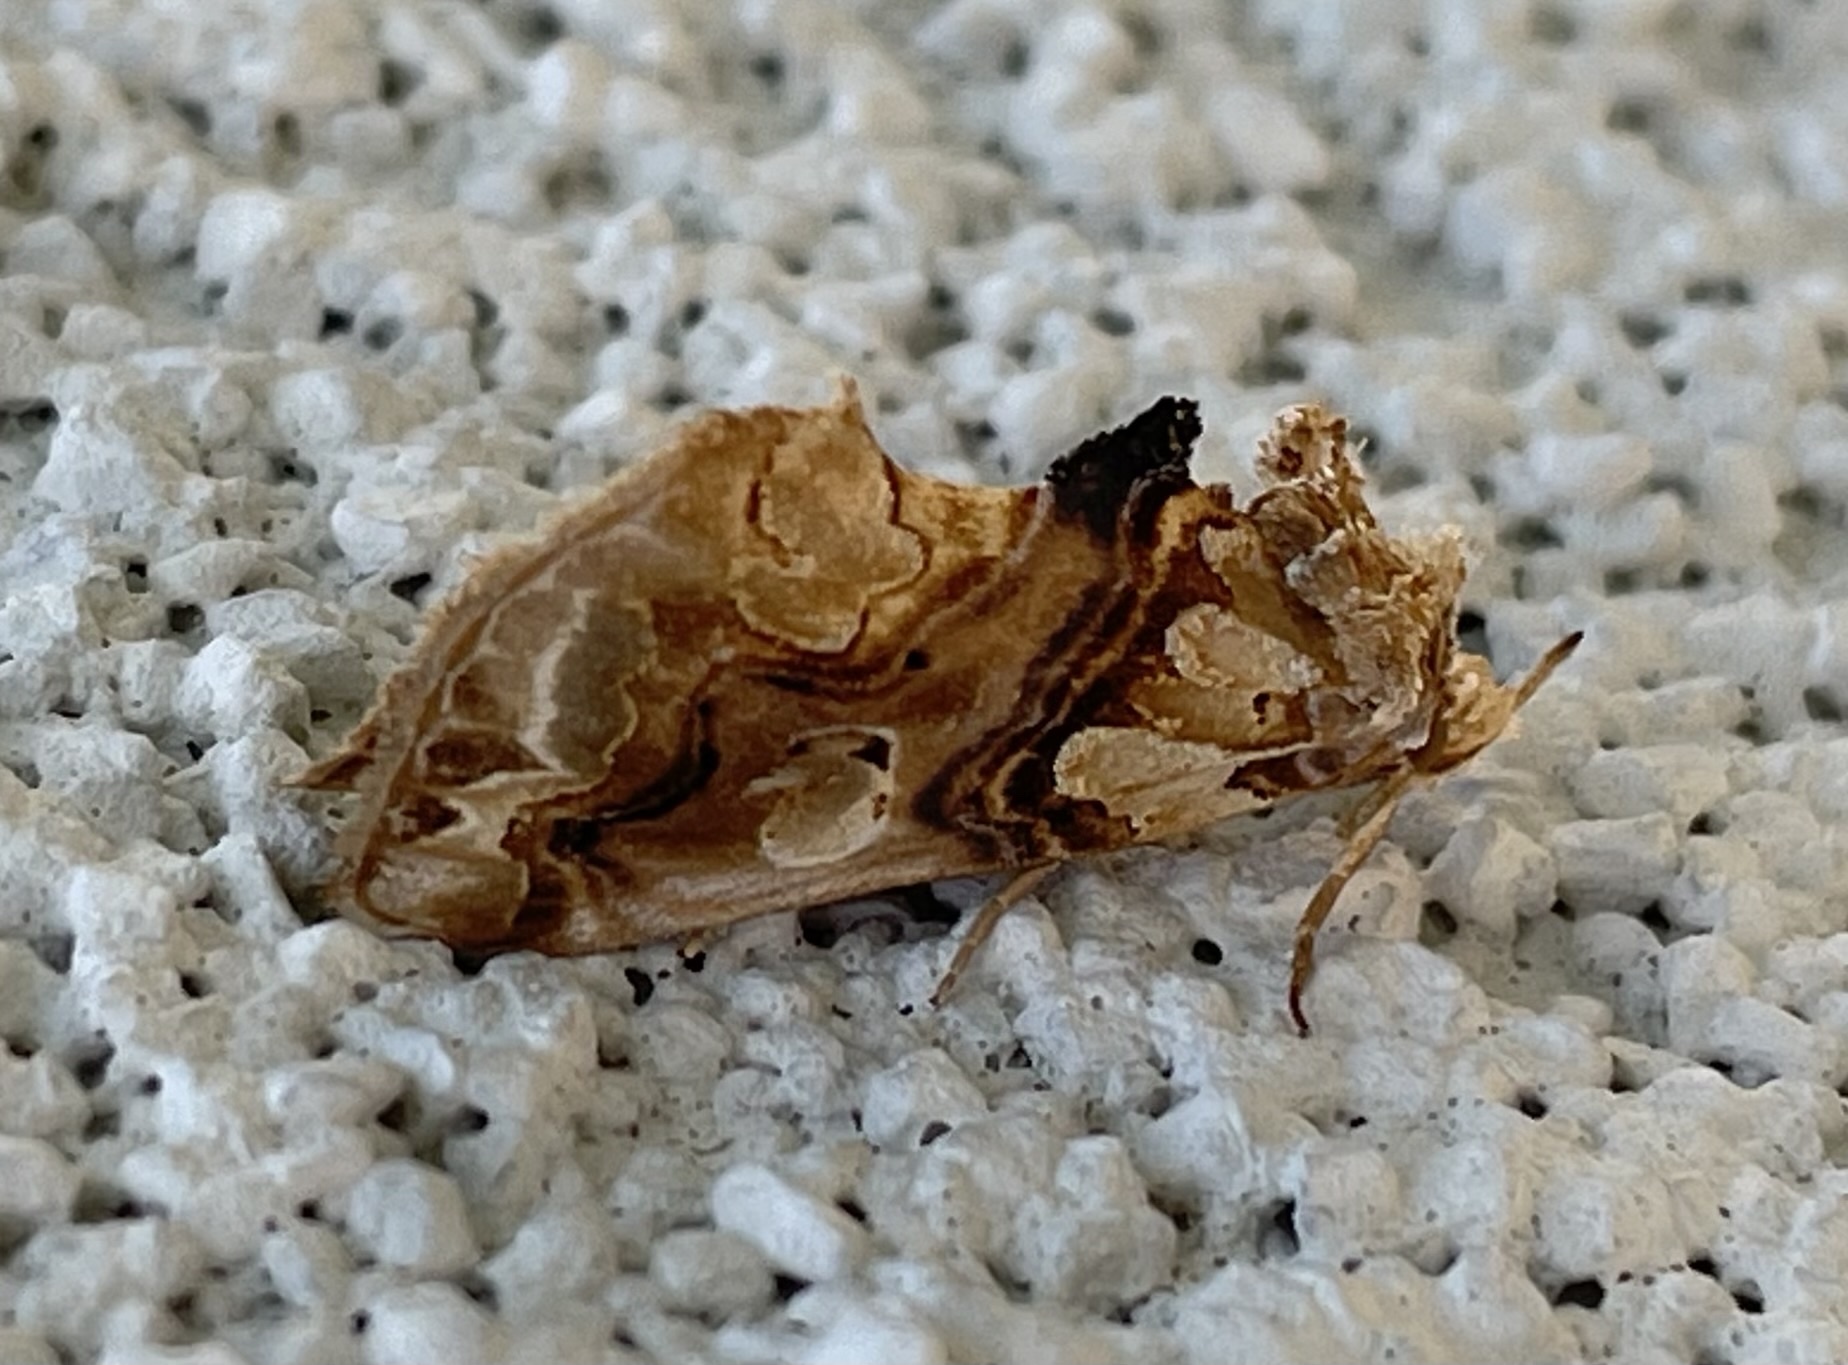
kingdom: Animalia
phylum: Arthropoda
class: Insecta
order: Lepidoptera
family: Erebidae
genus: Plusiodonta
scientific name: Plusiodonta compressipalpis
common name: Moonseed moth
